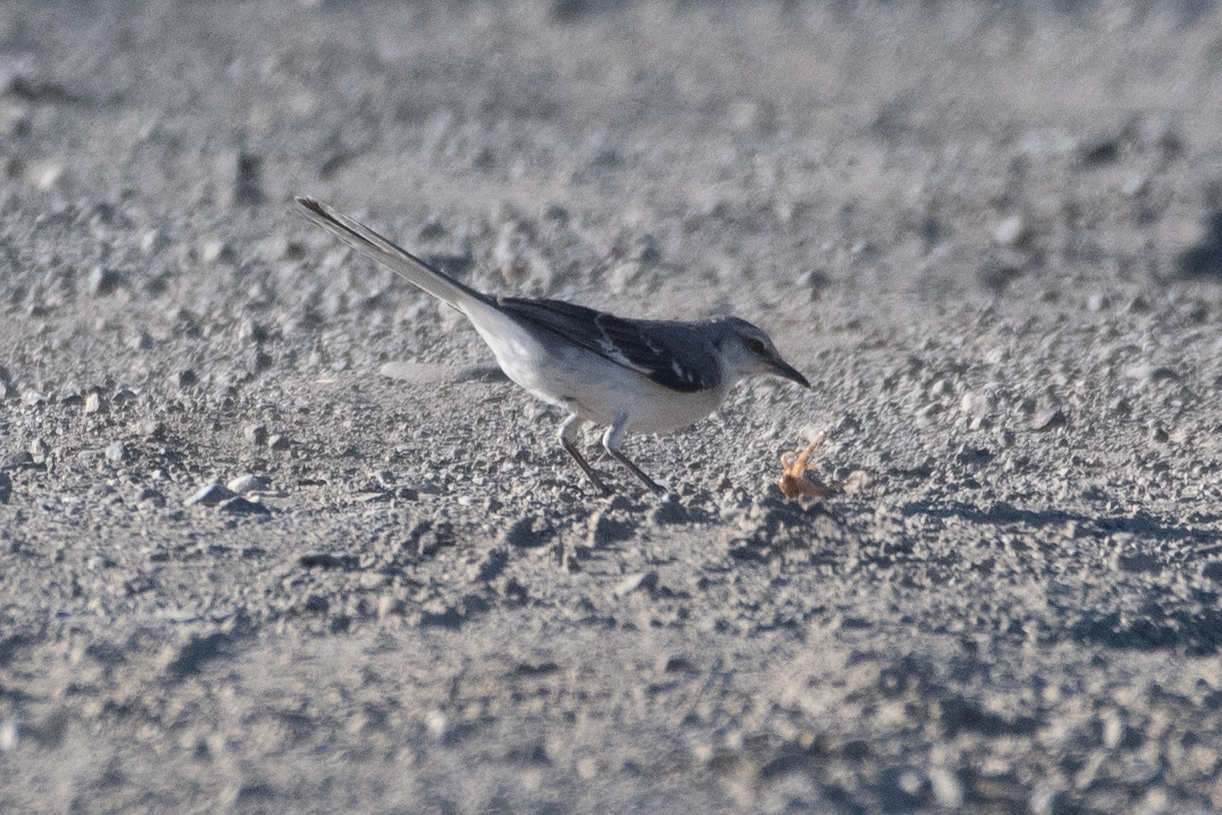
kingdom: Animalia
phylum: Chordata
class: Aves
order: Passeriformes
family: Mimidae
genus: Mimus
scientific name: Mimus polyglottos
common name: Northern mockingbird
